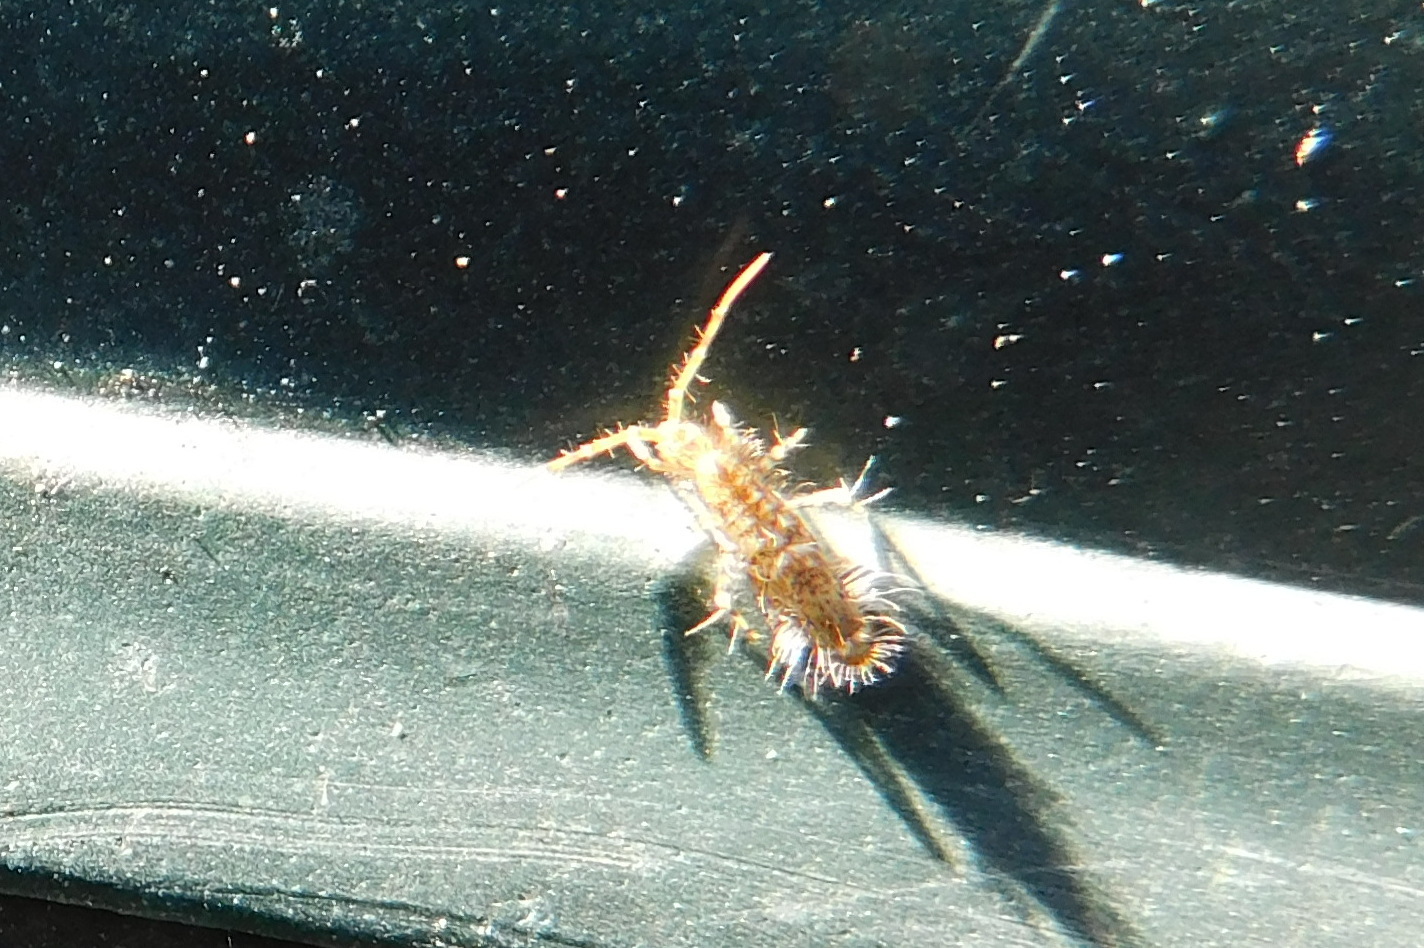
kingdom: Animalia
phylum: Arthropoda
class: Collembola
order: Entomobryomorpha
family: Entomobryidae
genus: Entomobrya
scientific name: Entomobrya dorsalis
